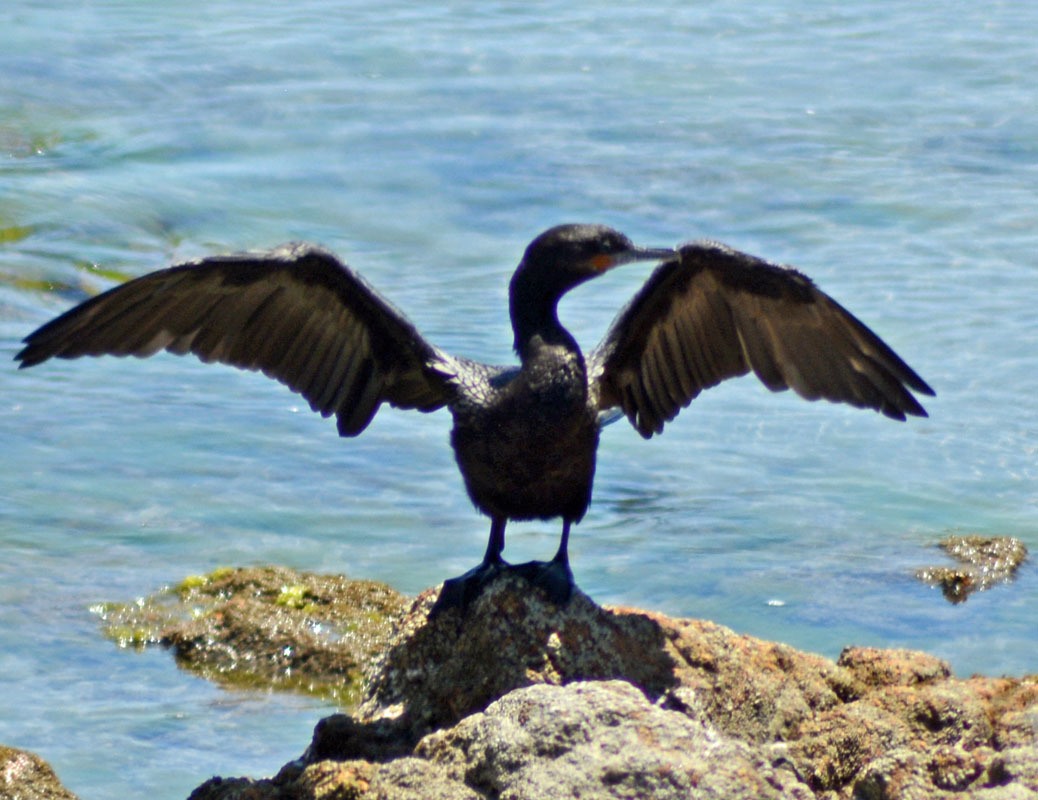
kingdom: Animalia
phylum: Chordata
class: Aves
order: Suliformes
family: Phalacrocoracidae
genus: Phalacrocorax
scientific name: Phalacrocorax brasilianus
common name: Neotropic cormorant
